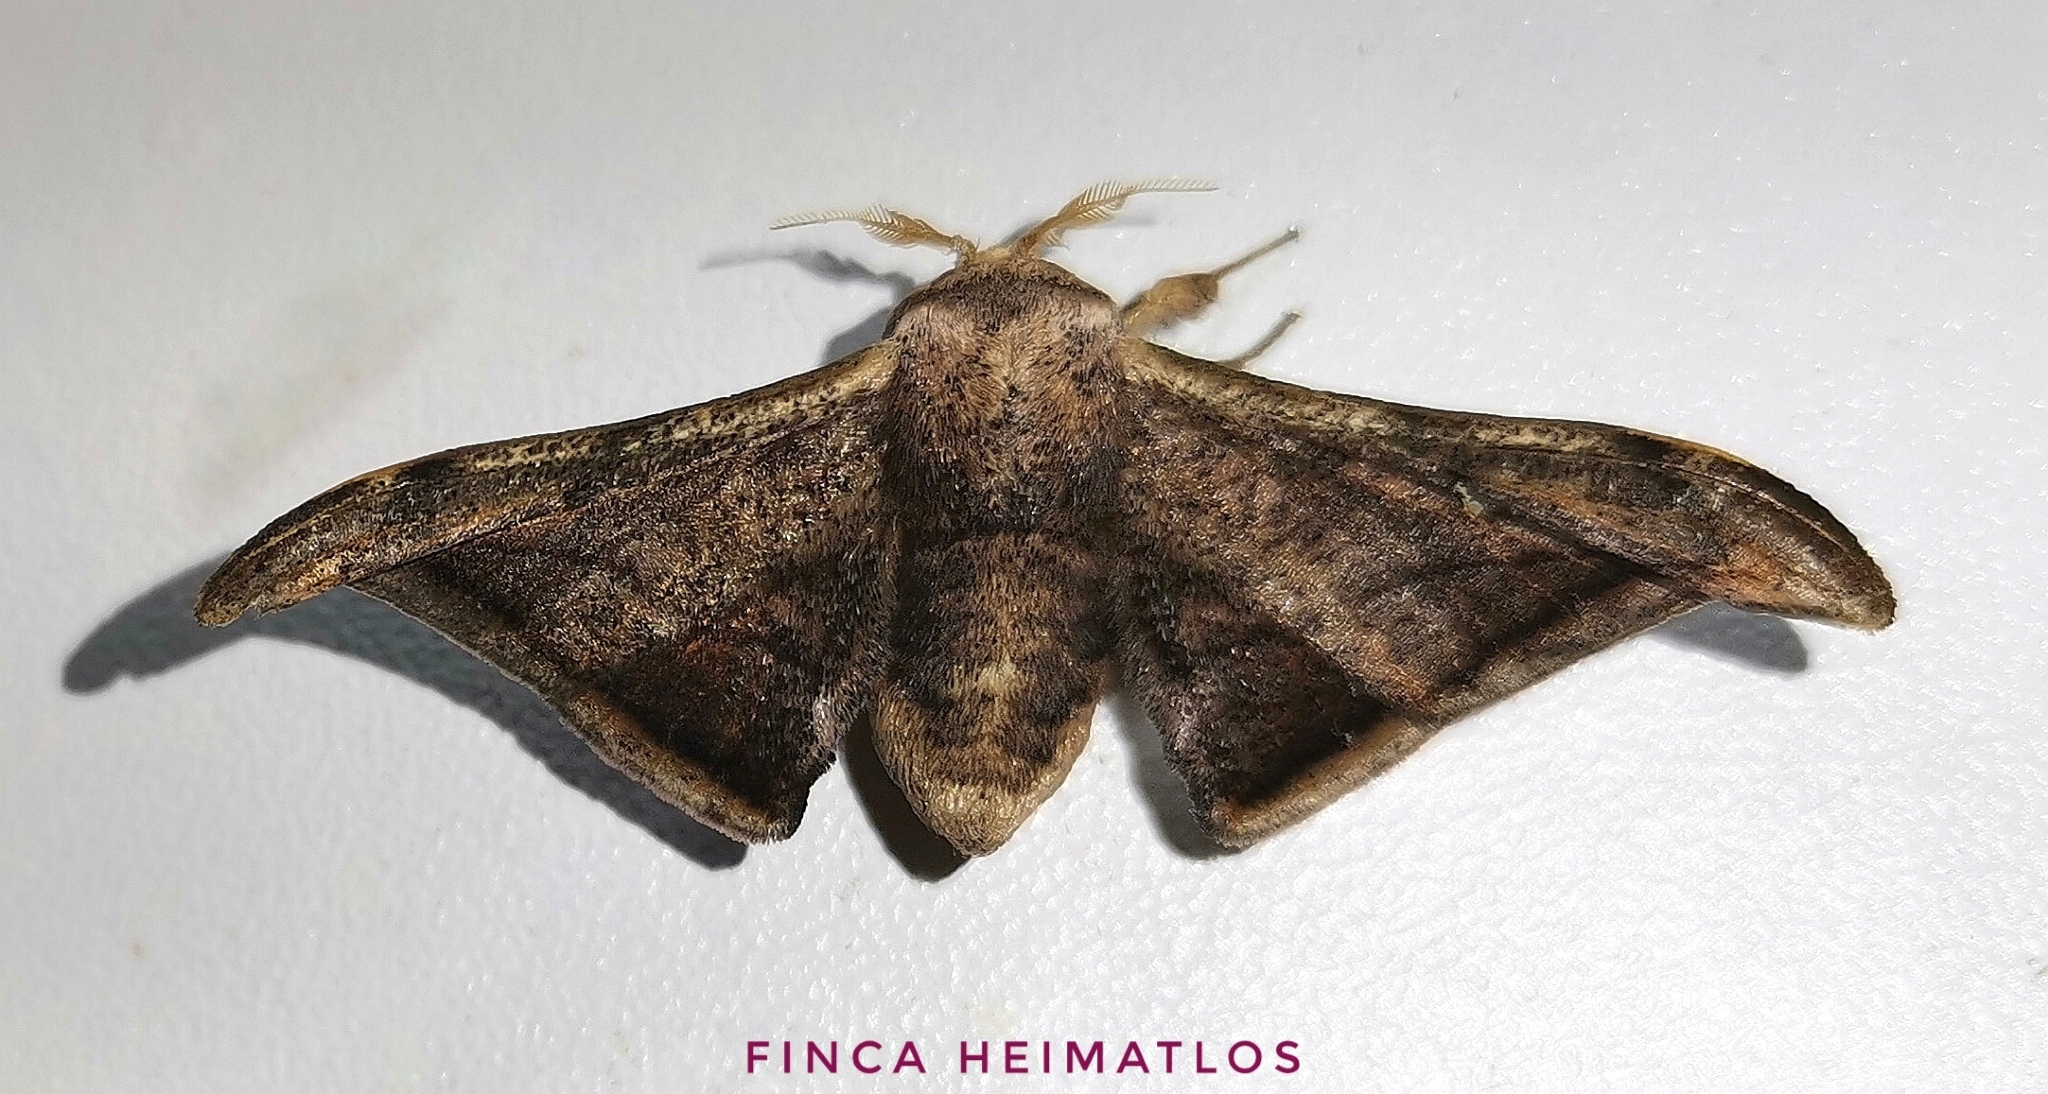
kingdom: Animalia
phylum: Arthropoda
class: Insecta
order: Lepidoptera
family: Mimallonidae
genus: Cicinnus
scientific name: Cicinnus malca
